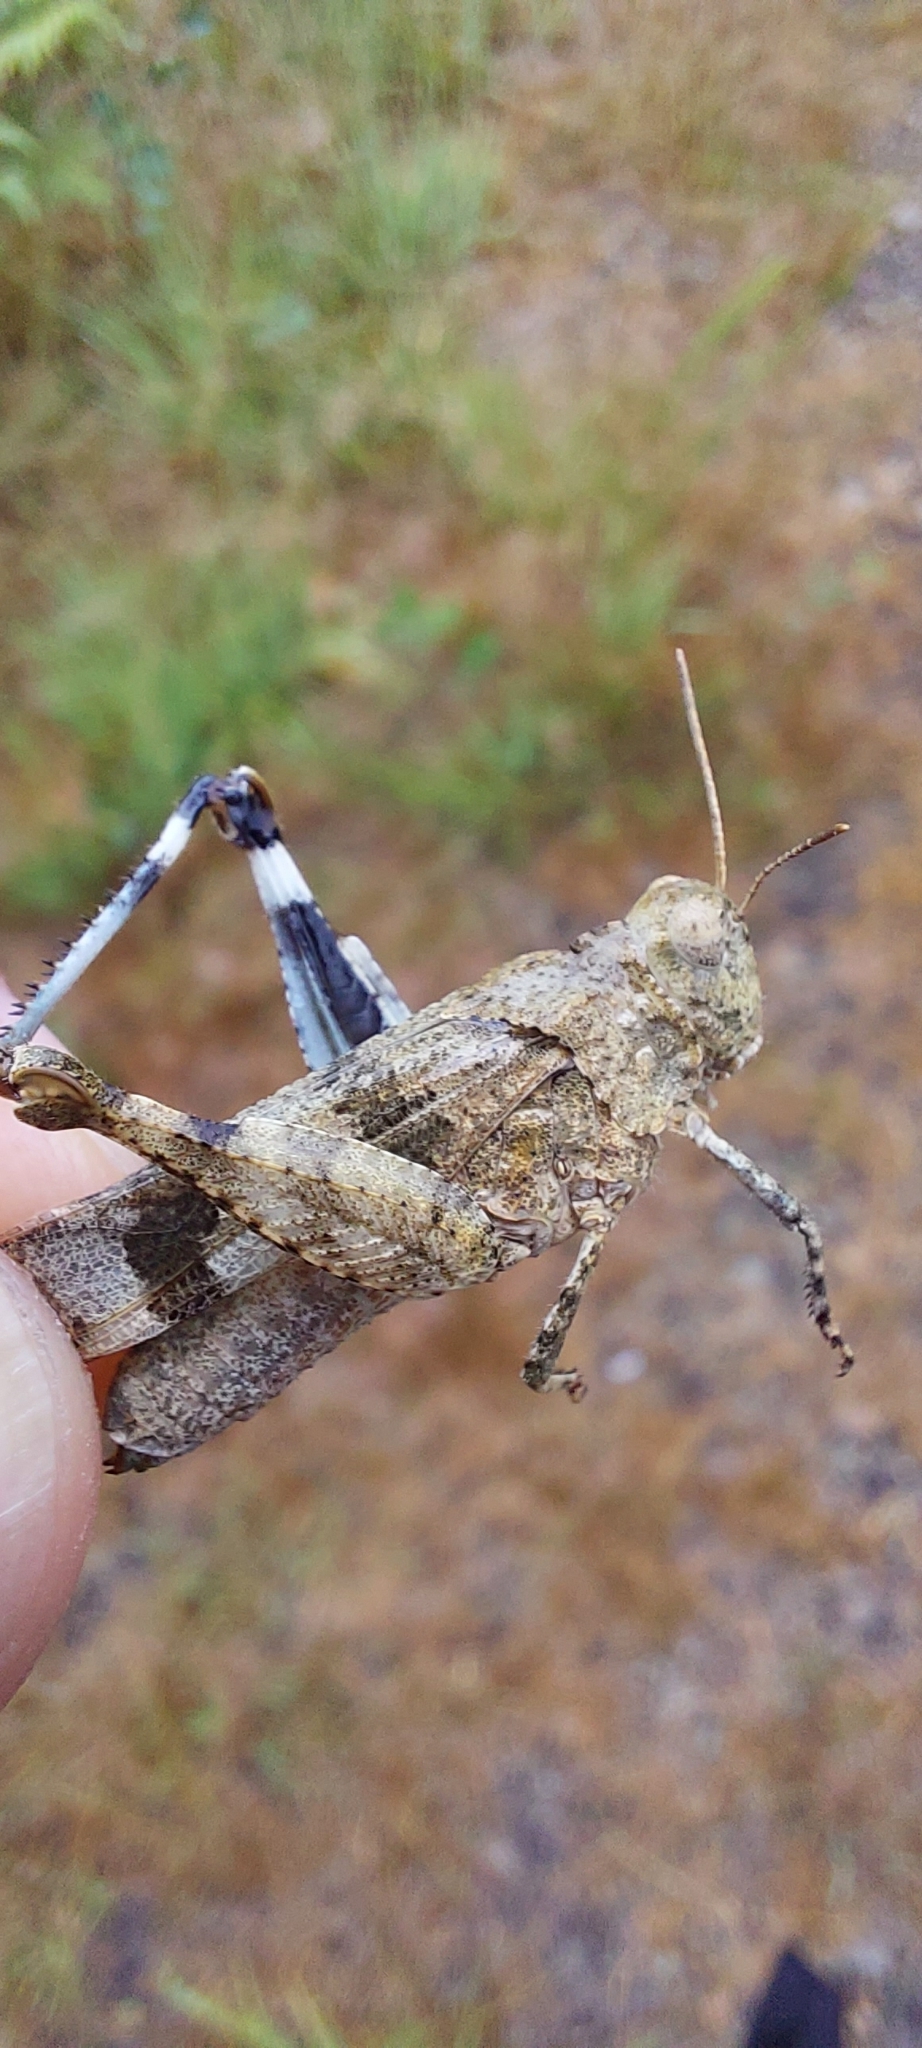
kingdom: Animalia
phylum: Arthropoda
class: Insecta
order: Orthoptera
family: Acrididae
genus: Oedipoda
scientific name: Oedipoda caerulescens
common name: Blue-winged grasshopper
